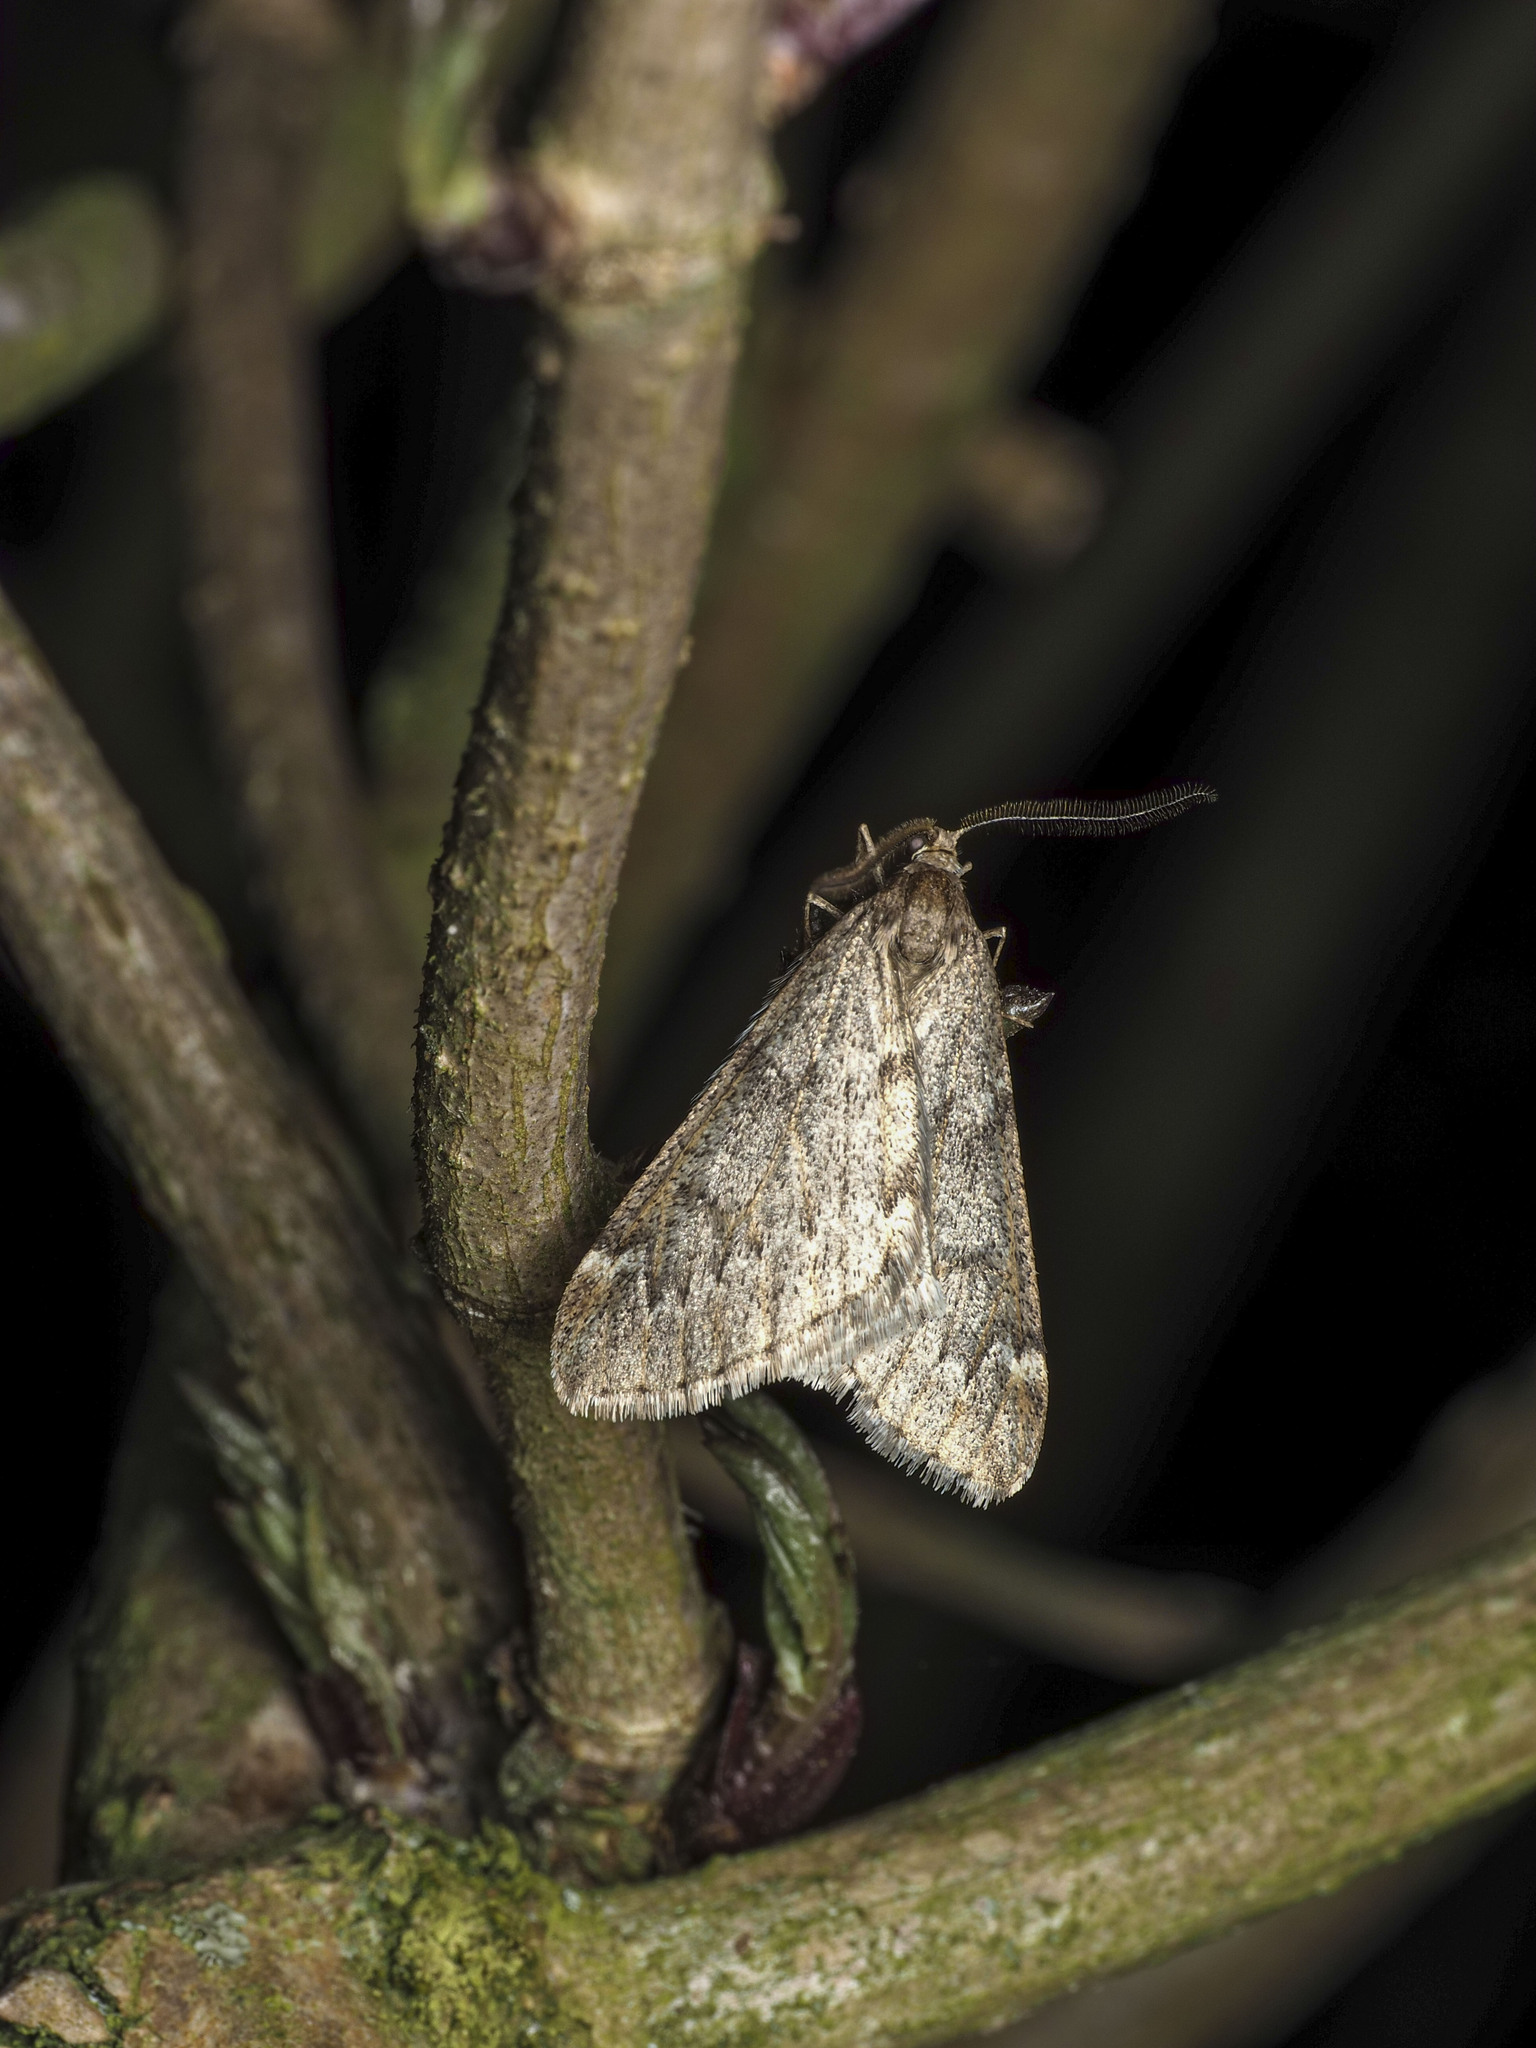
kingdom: Animalia
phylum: Arthropoda
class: Insecta
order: Lepidoptera
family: Geometridae
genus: Alsophila
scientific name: Alsophila aescularia
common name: March moth
